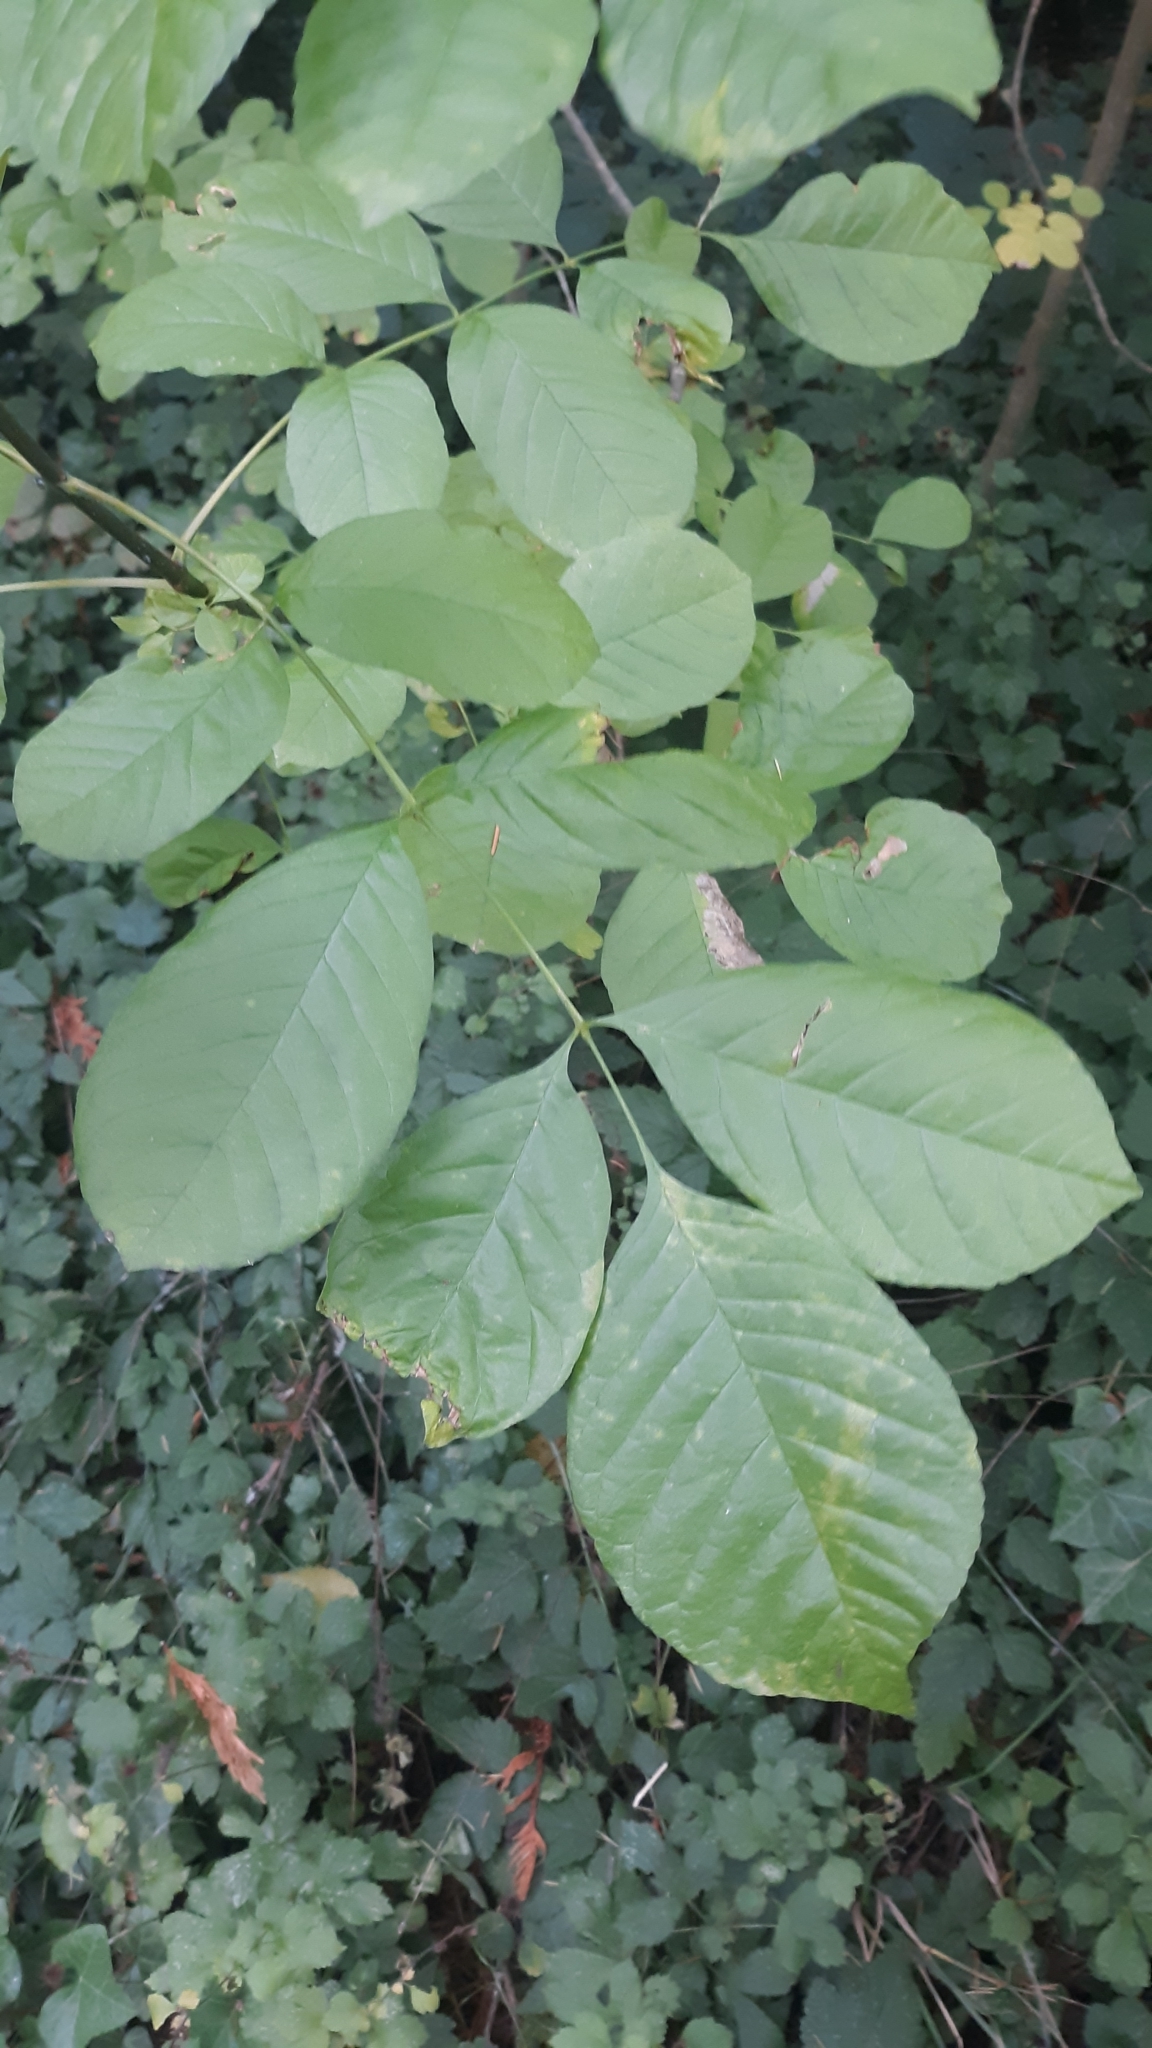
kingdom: Plantae
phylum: Tracheophyta
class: Magnoliopsida
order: Lamiales
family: Oleaceae
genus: Fraxinus
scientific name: Fraxinus latifolia
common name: Oregon ash
